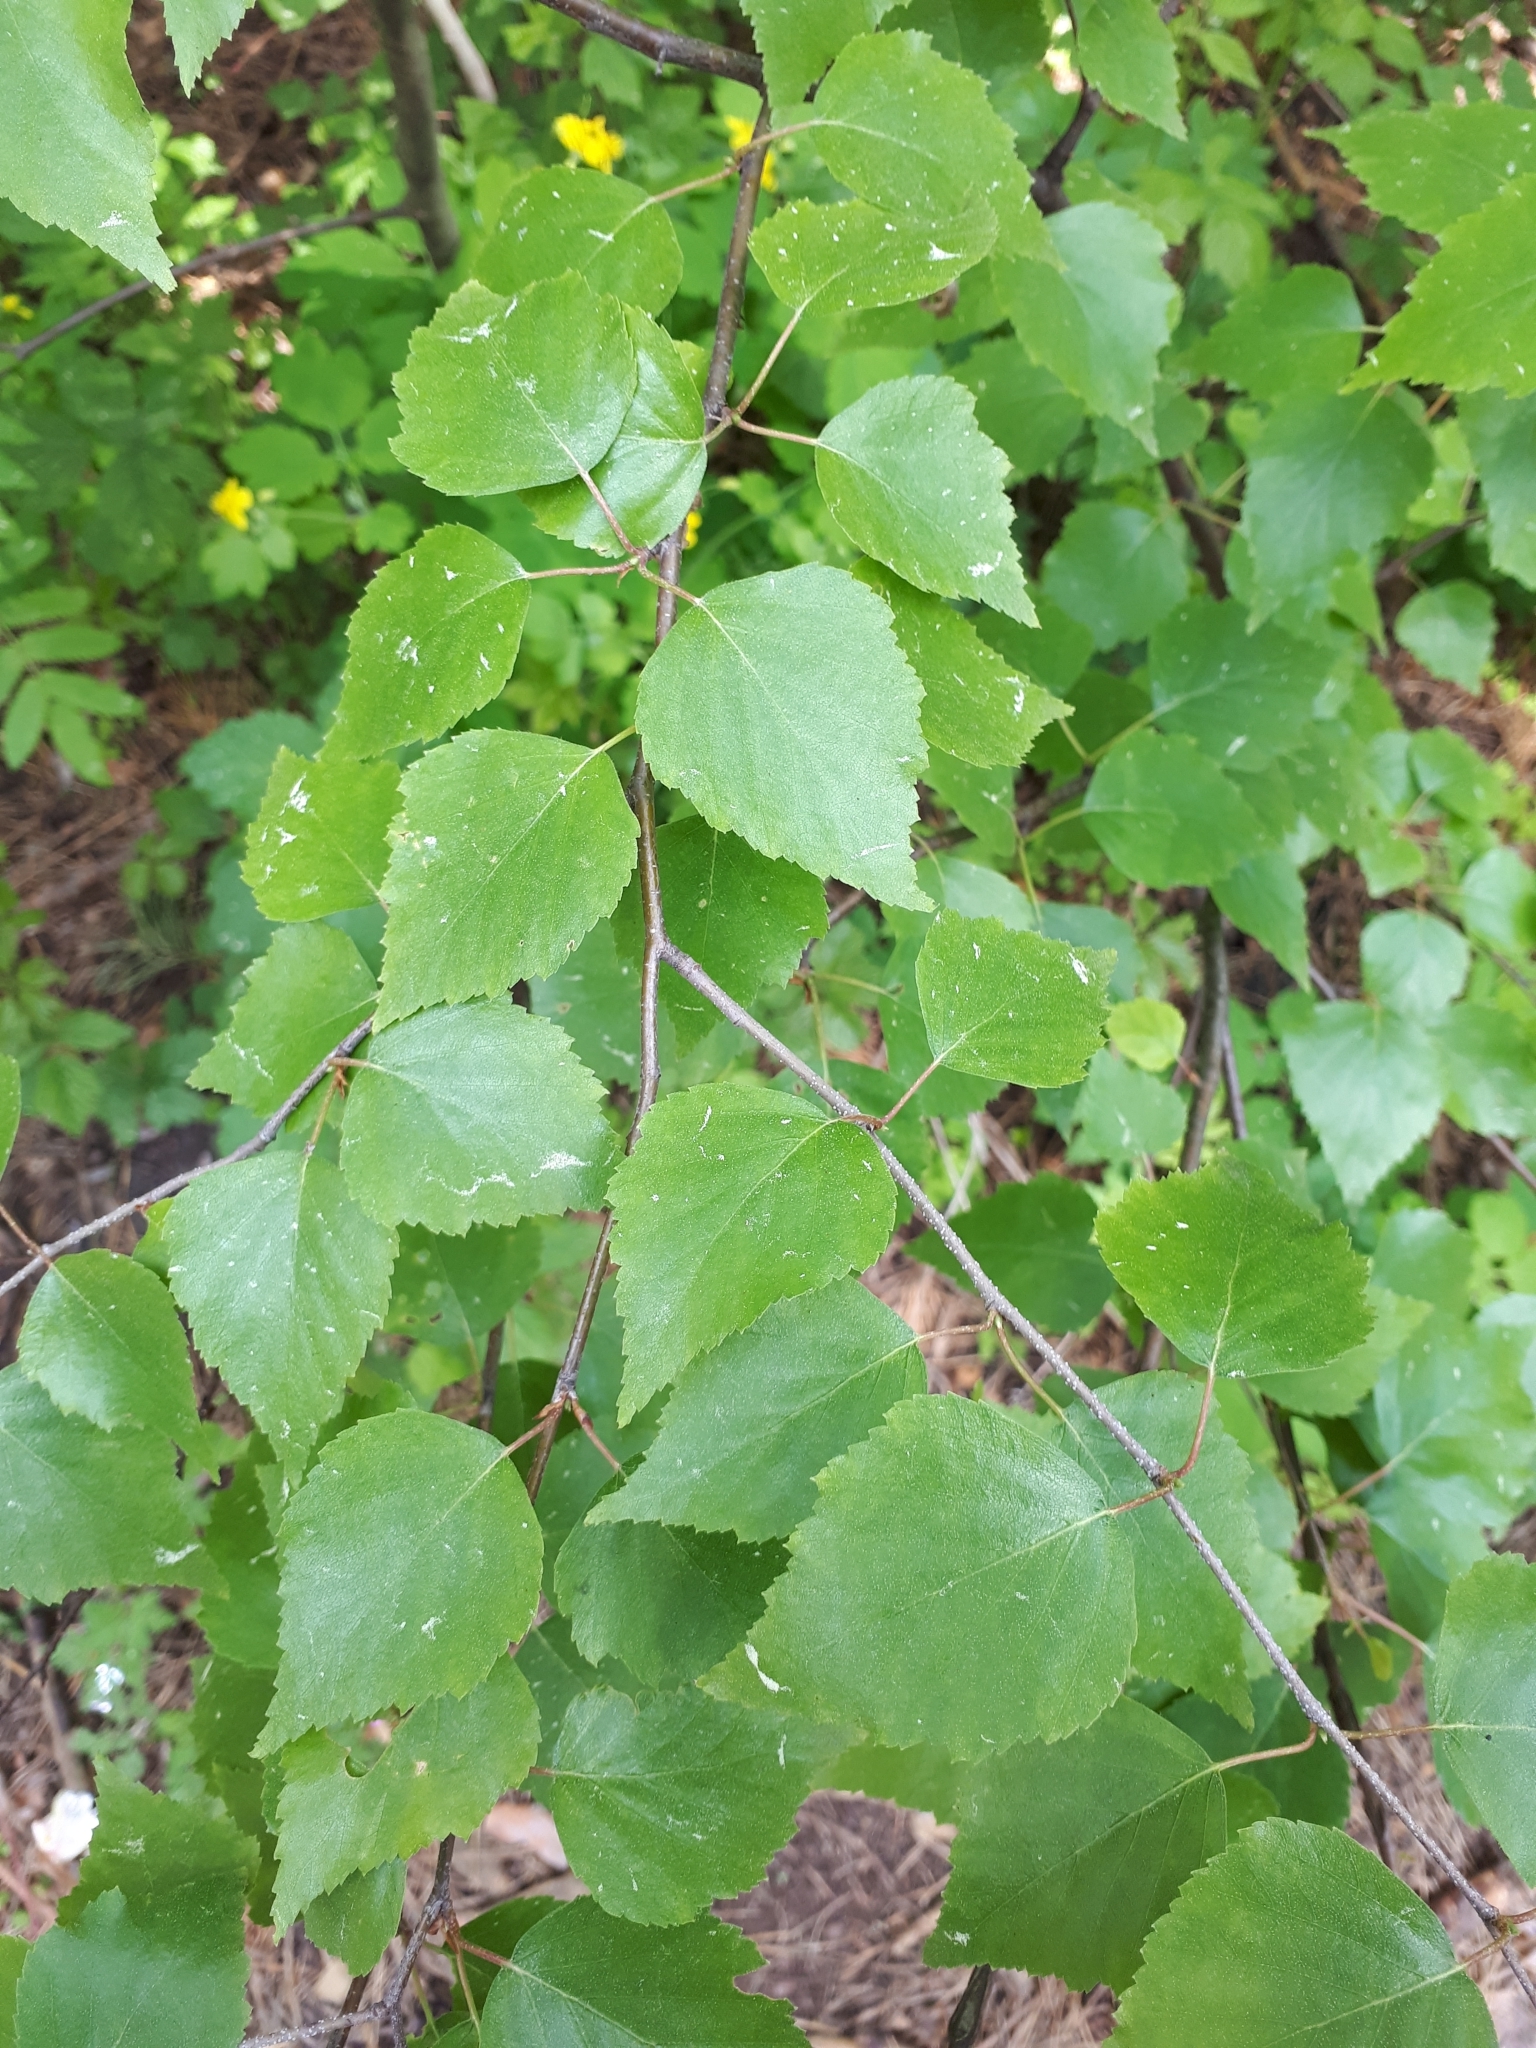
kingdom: Plantae
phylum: Tracheophyta
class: Magnoliopsida
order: Fagales
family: Betulaceae
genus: Betula
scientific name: Betula pendula
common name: Silver birch
